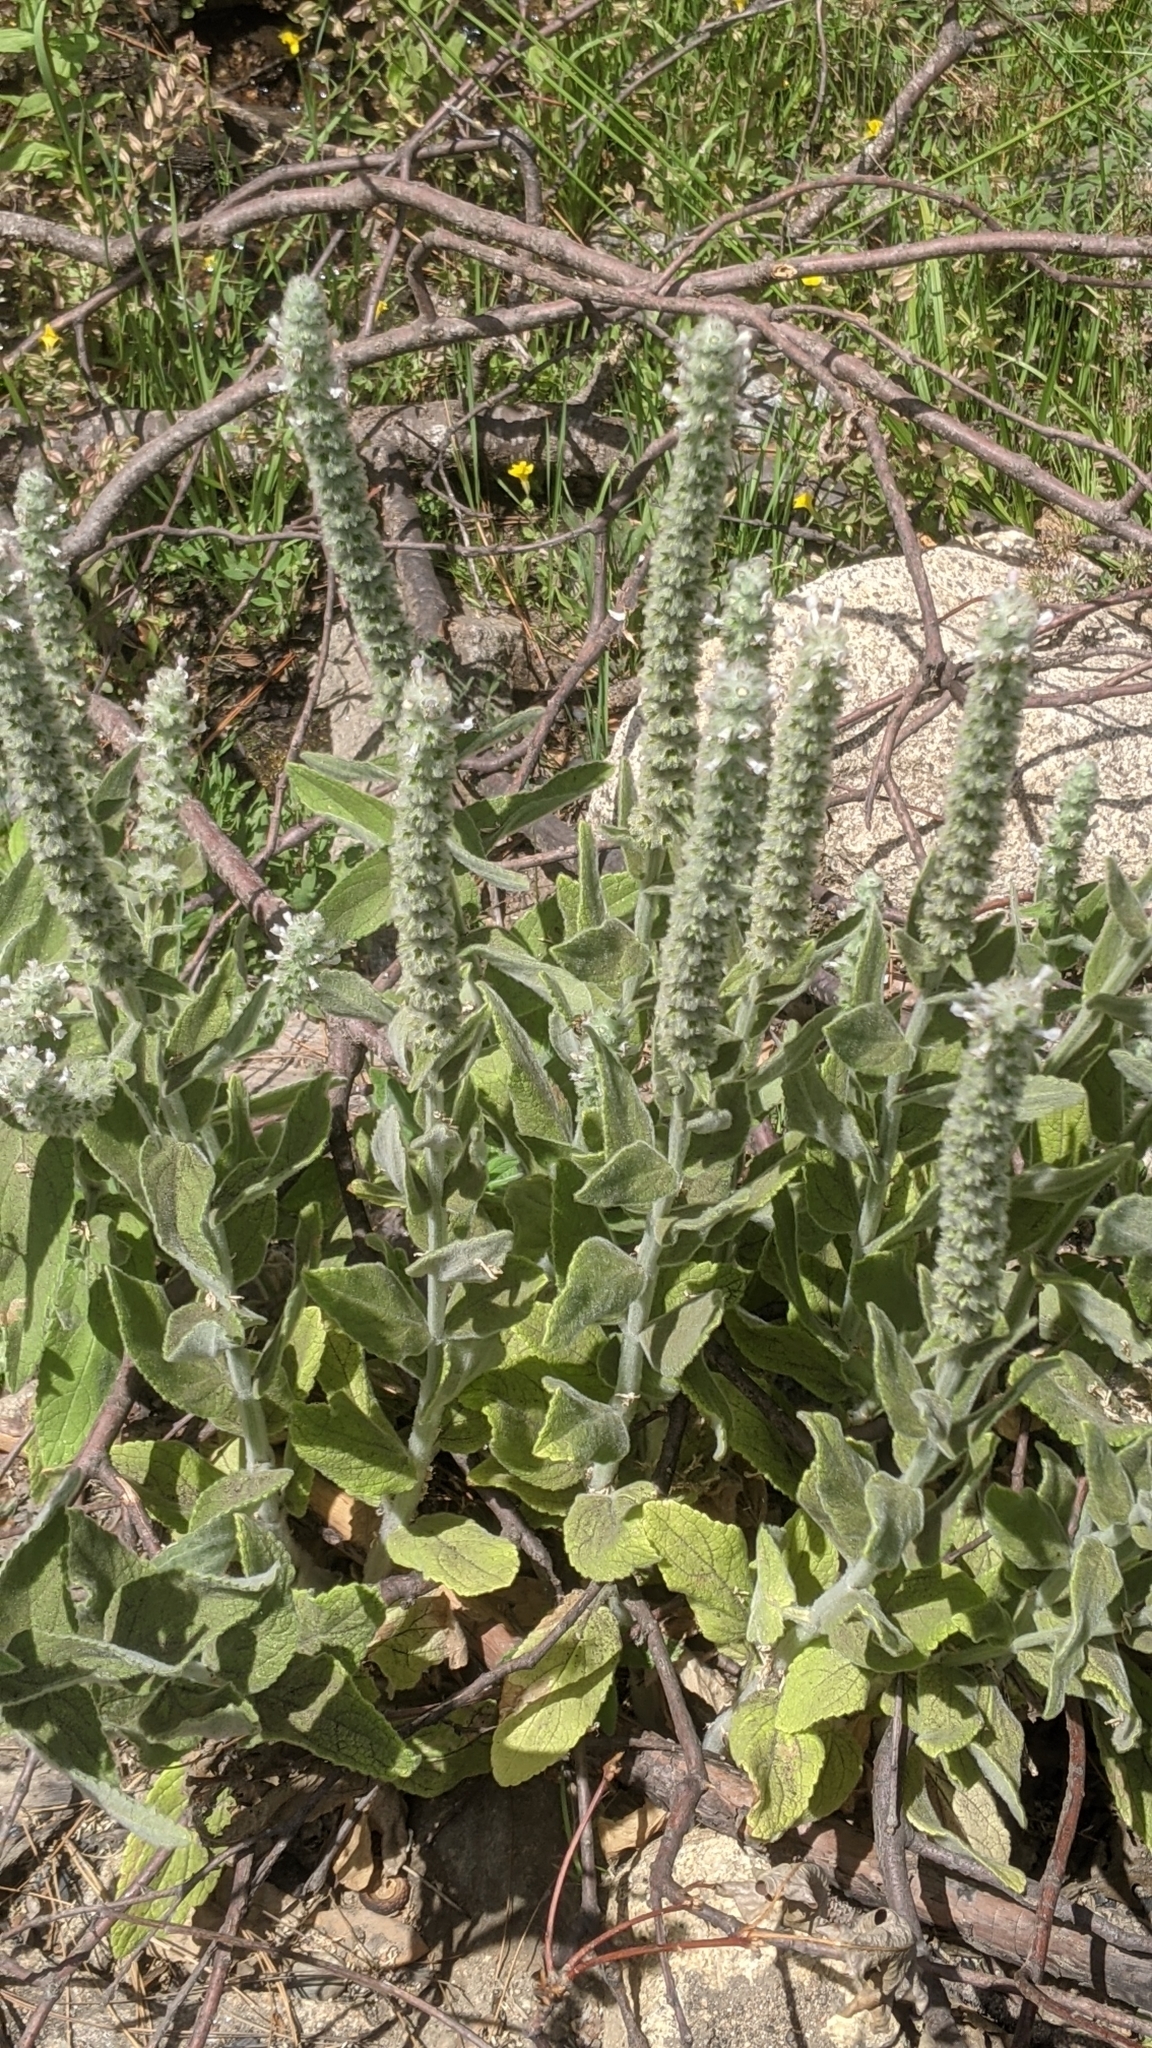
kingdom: Plantae
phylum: Tracheophyta
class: Magnoliopsida
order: Lamiales
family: Lamiaceae
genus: Stachys
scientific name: Stachys albens
